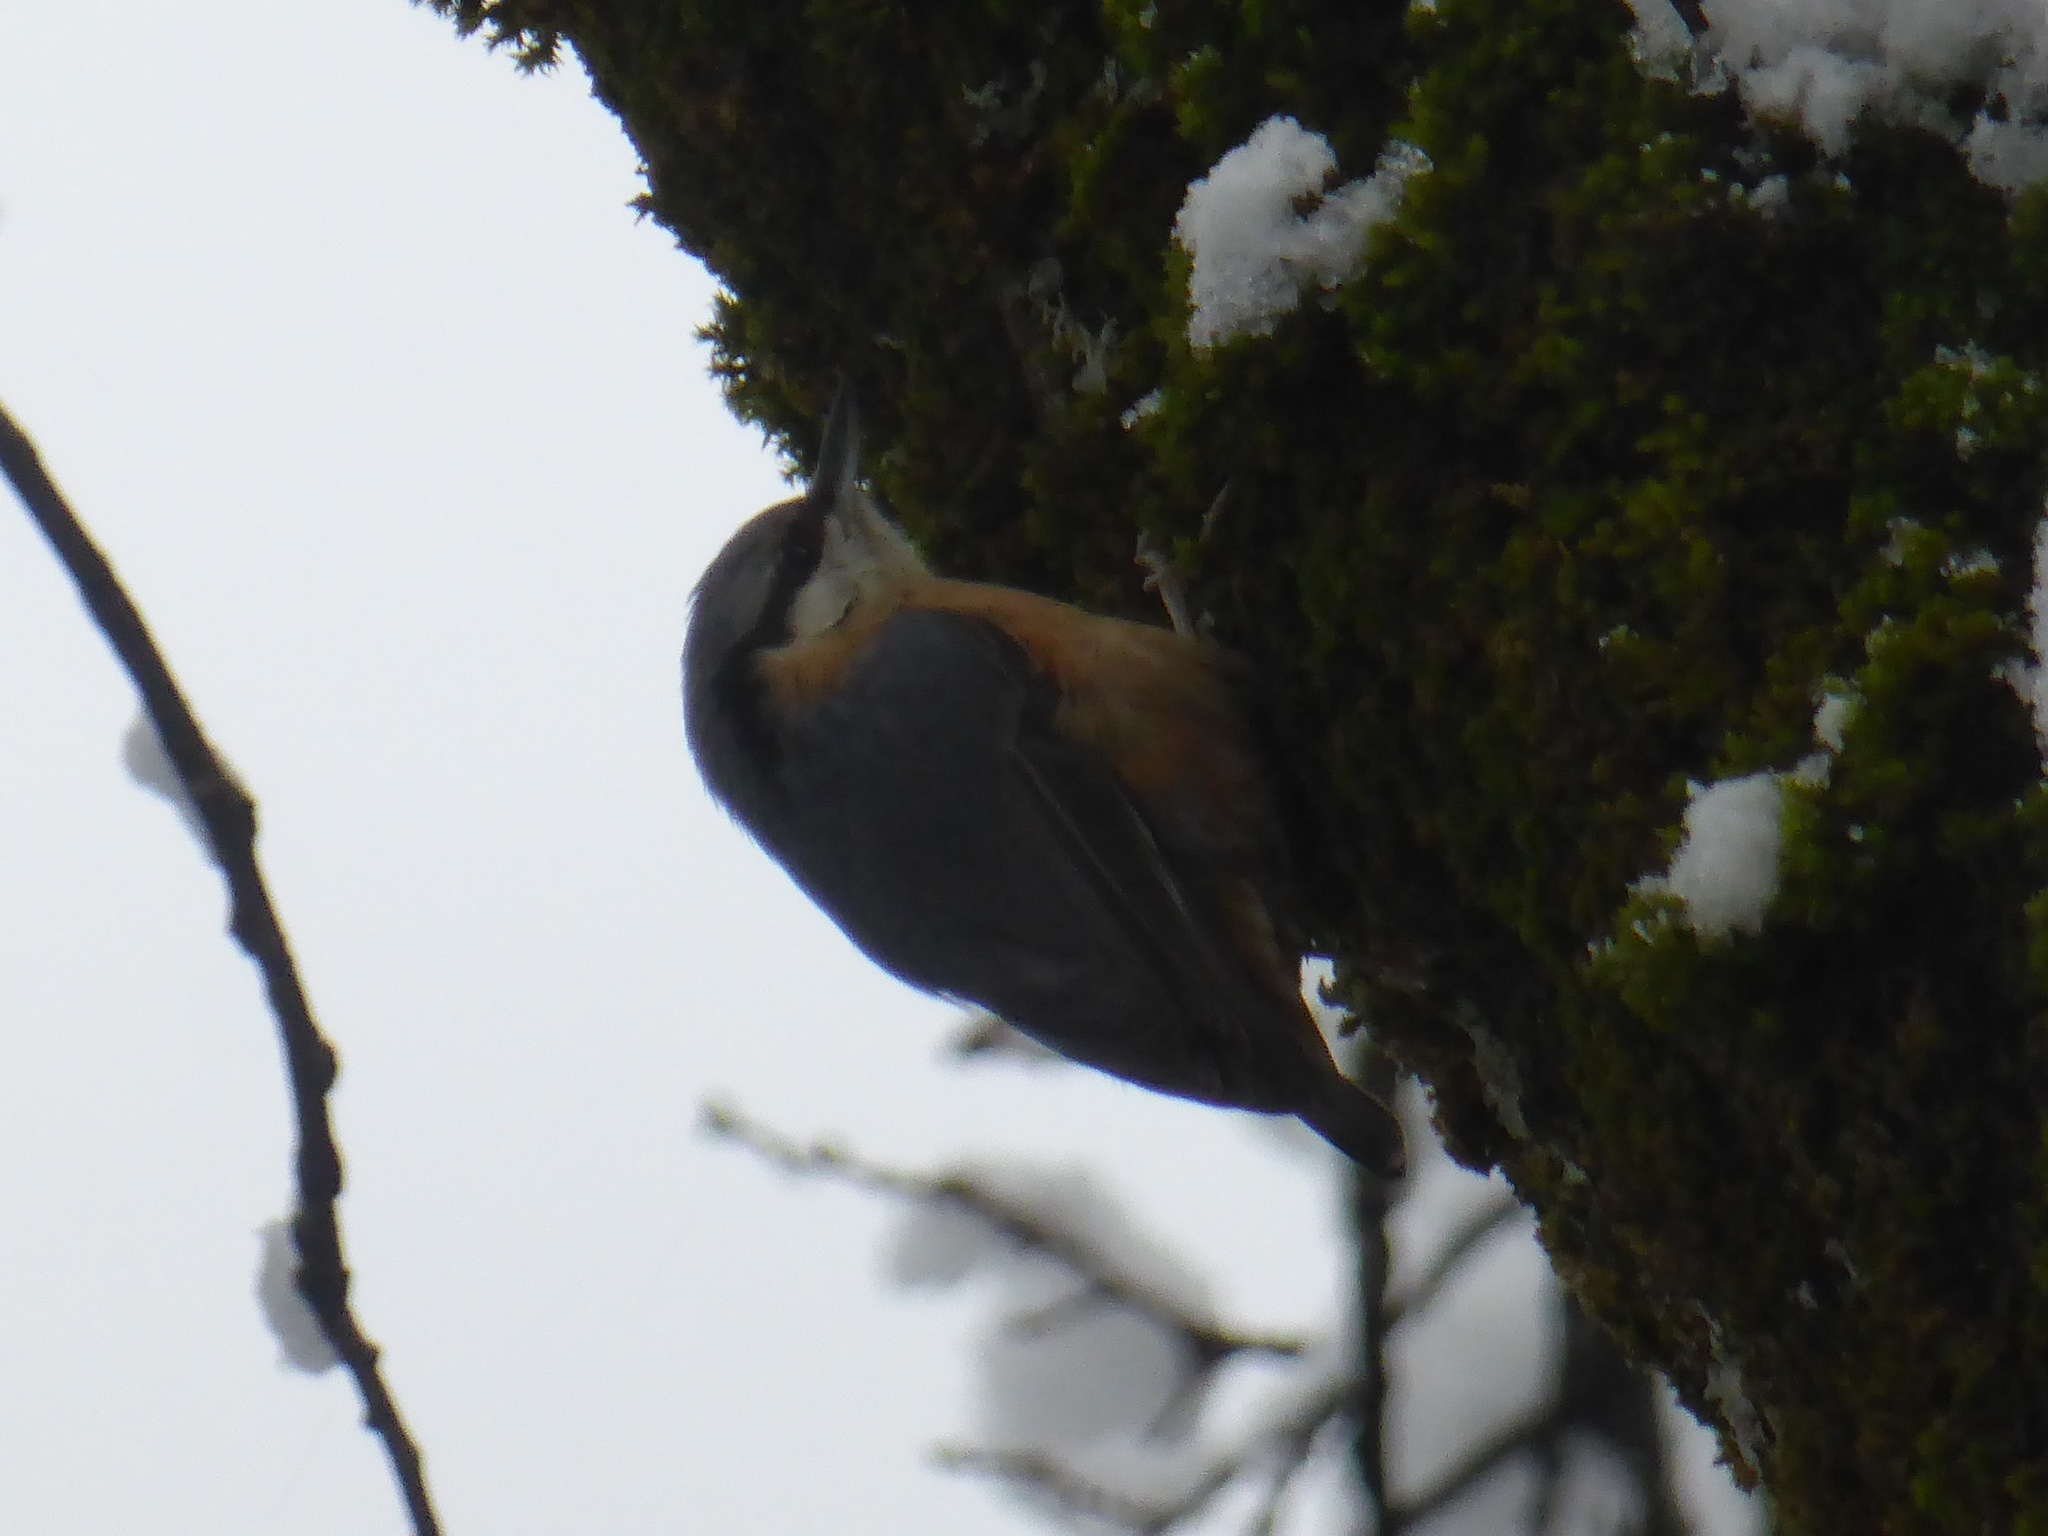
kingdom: Animalia
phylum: Chordata
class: Aves
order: Passeriformes
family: Sittidae
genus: Sitta
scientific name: Sitta europaea
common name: Eurasian nuthatch
